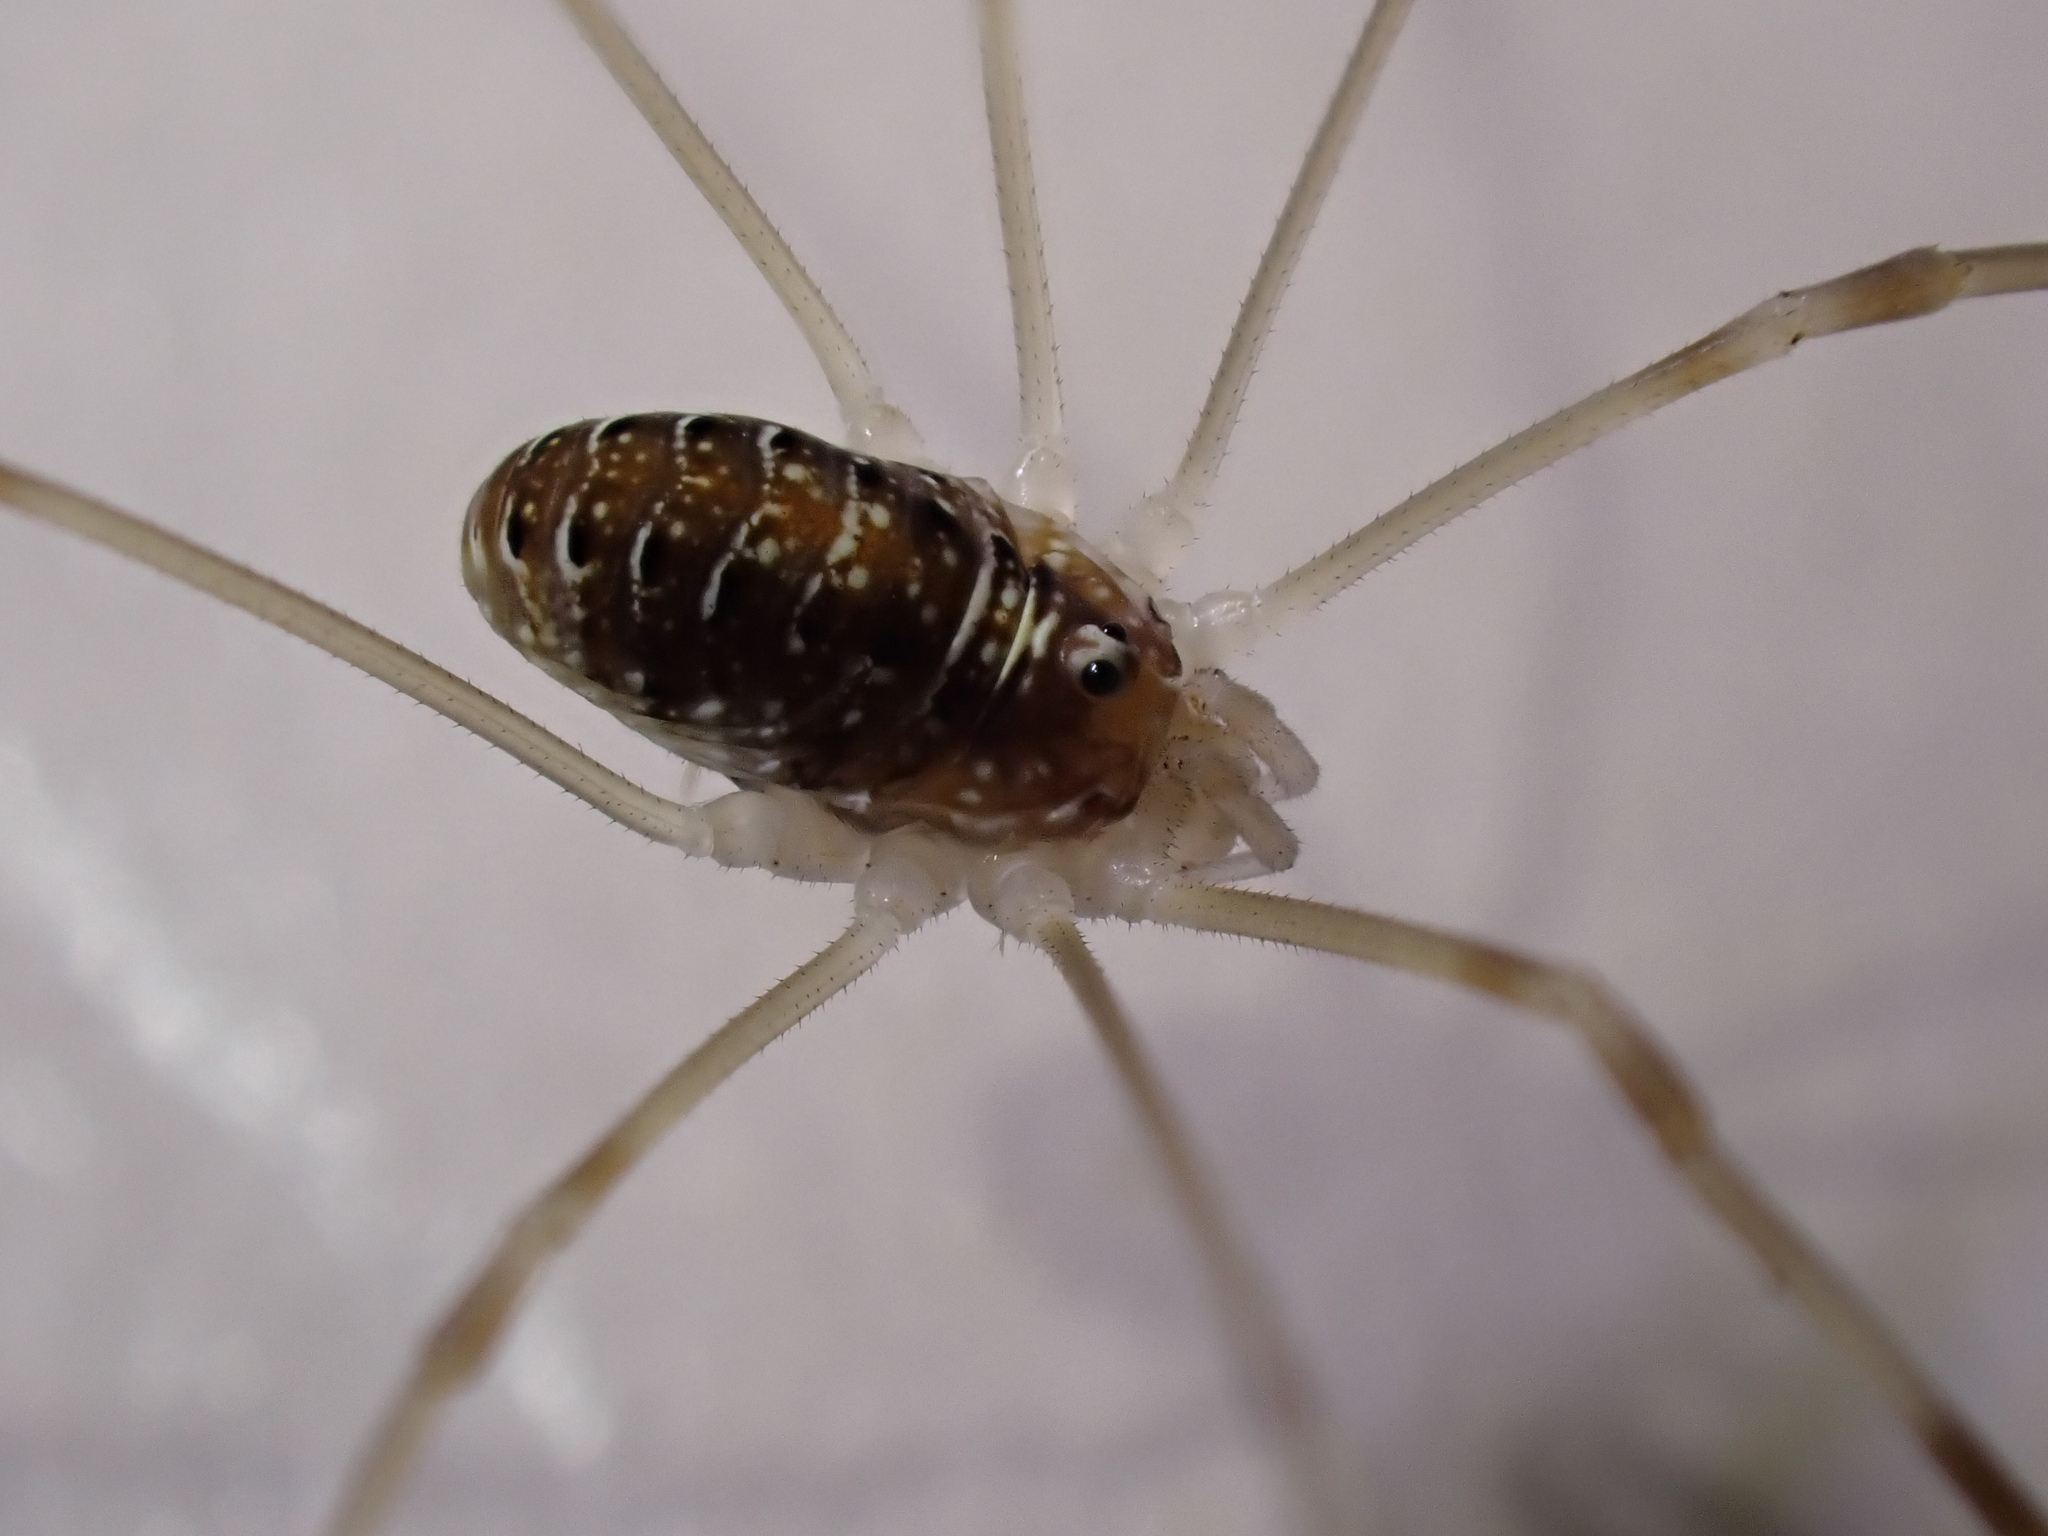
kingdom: Animalia
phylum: Arthropoda
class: Arachnida
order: Opiliones
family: Phalangiidae
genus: Opilio
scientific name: Opilio canestrinii
